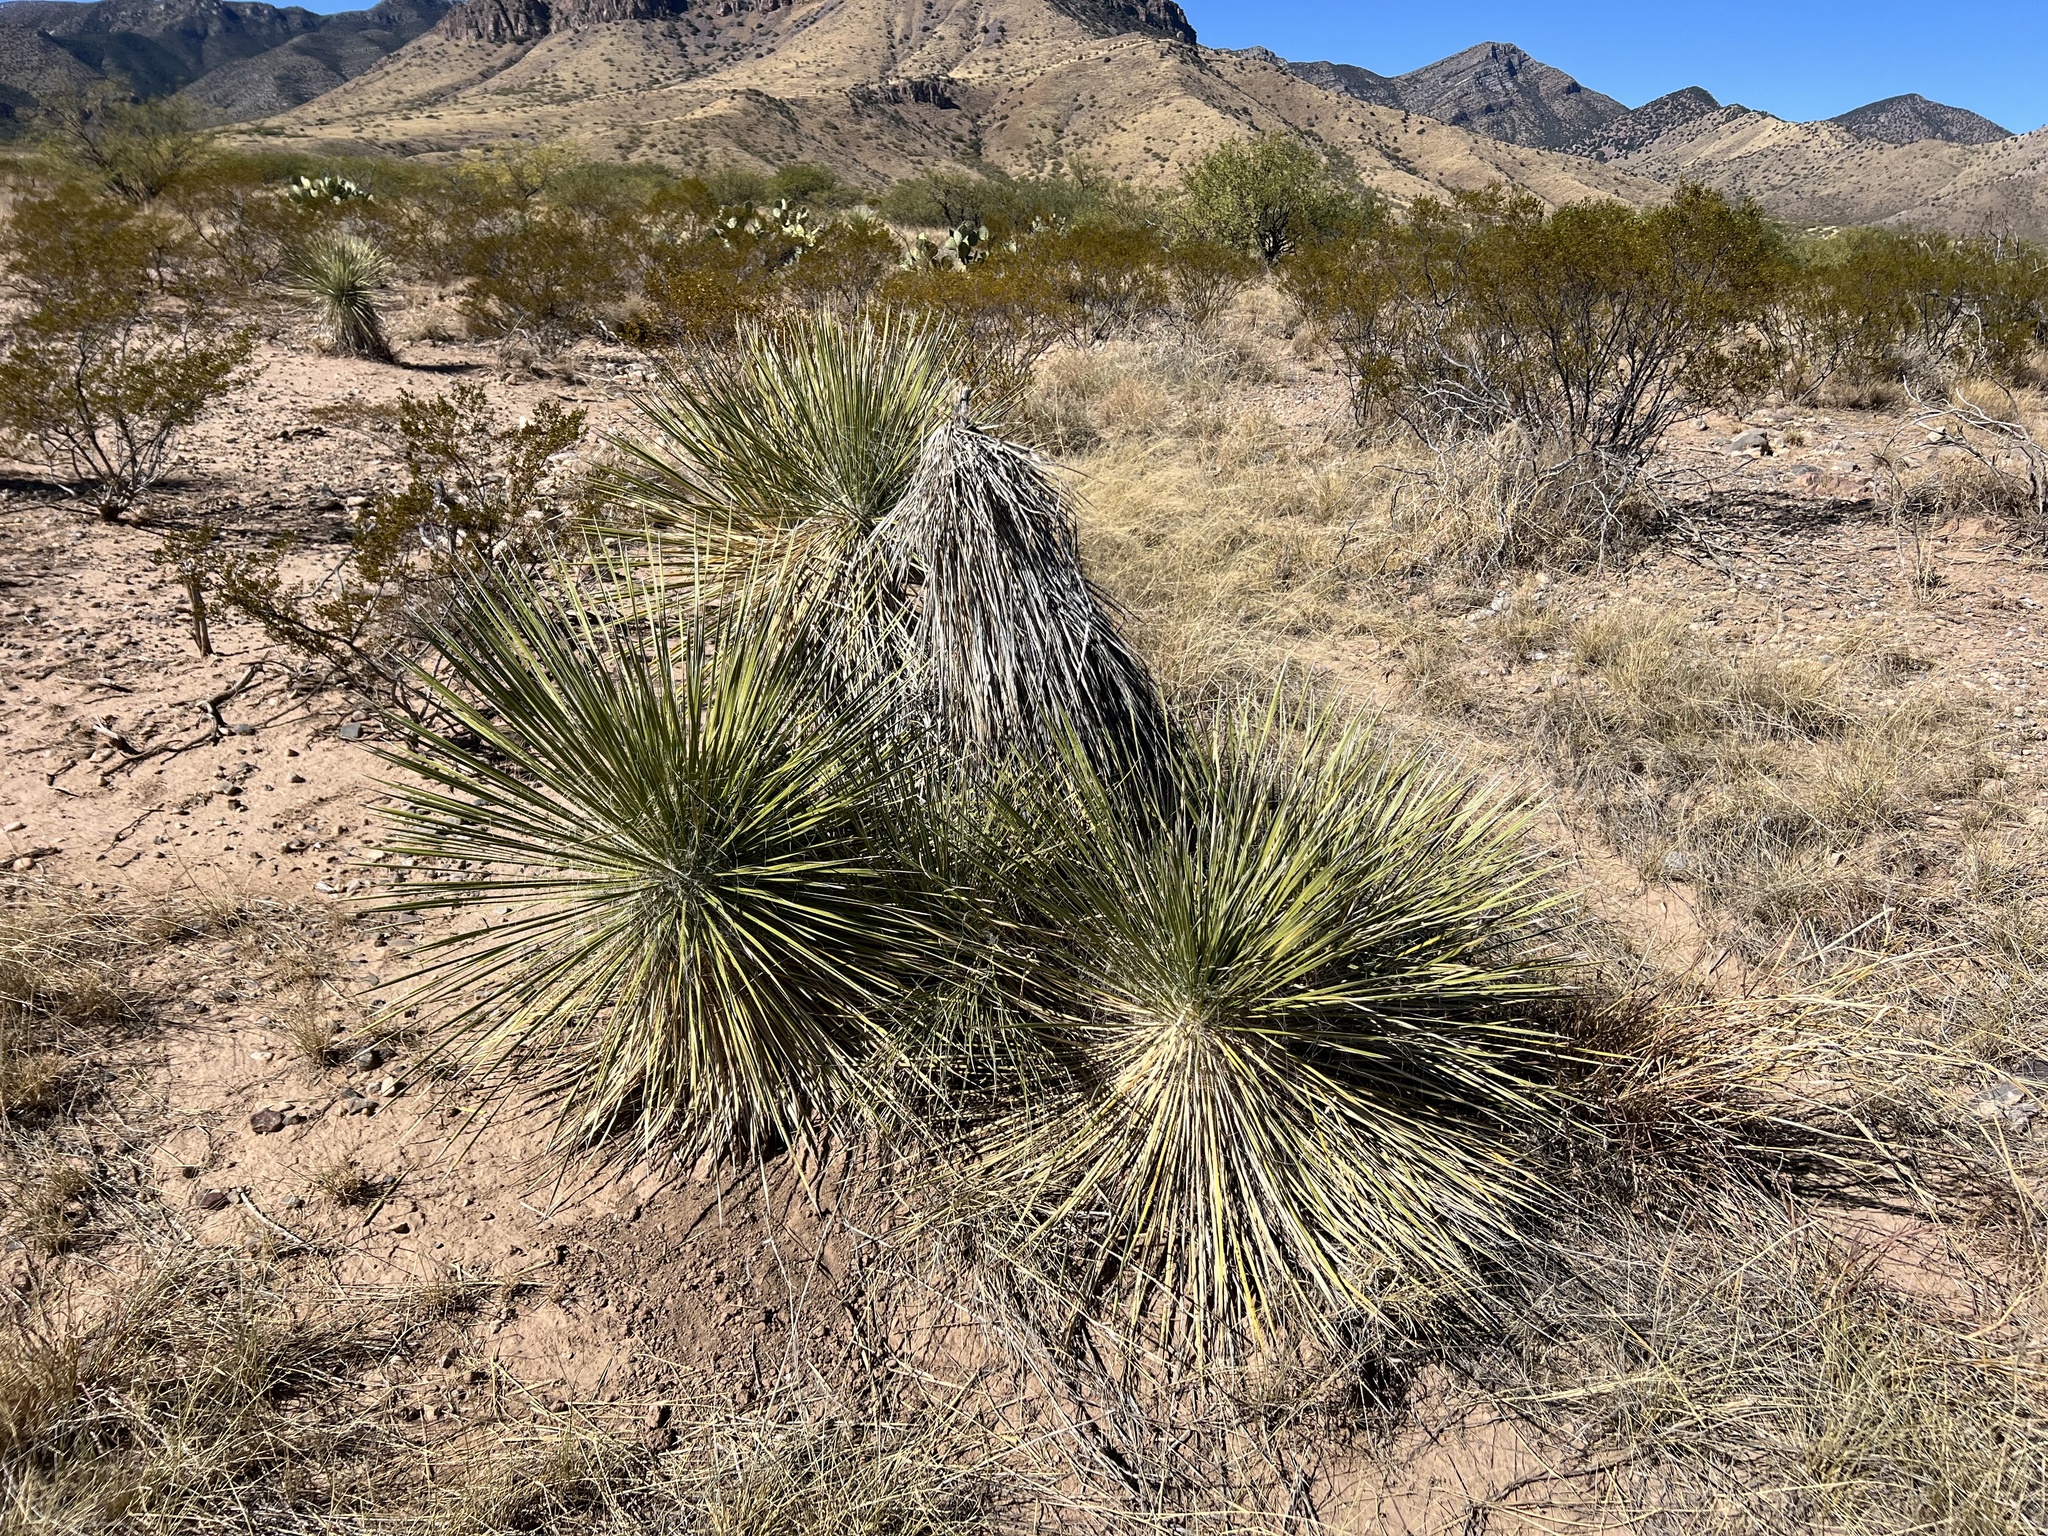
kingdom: Plantae
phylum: Tracheophyta
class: Liliopsida
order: Asparagales
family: Asparagaceae
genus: Yucca
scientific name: Yucca elata
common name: Palmella
